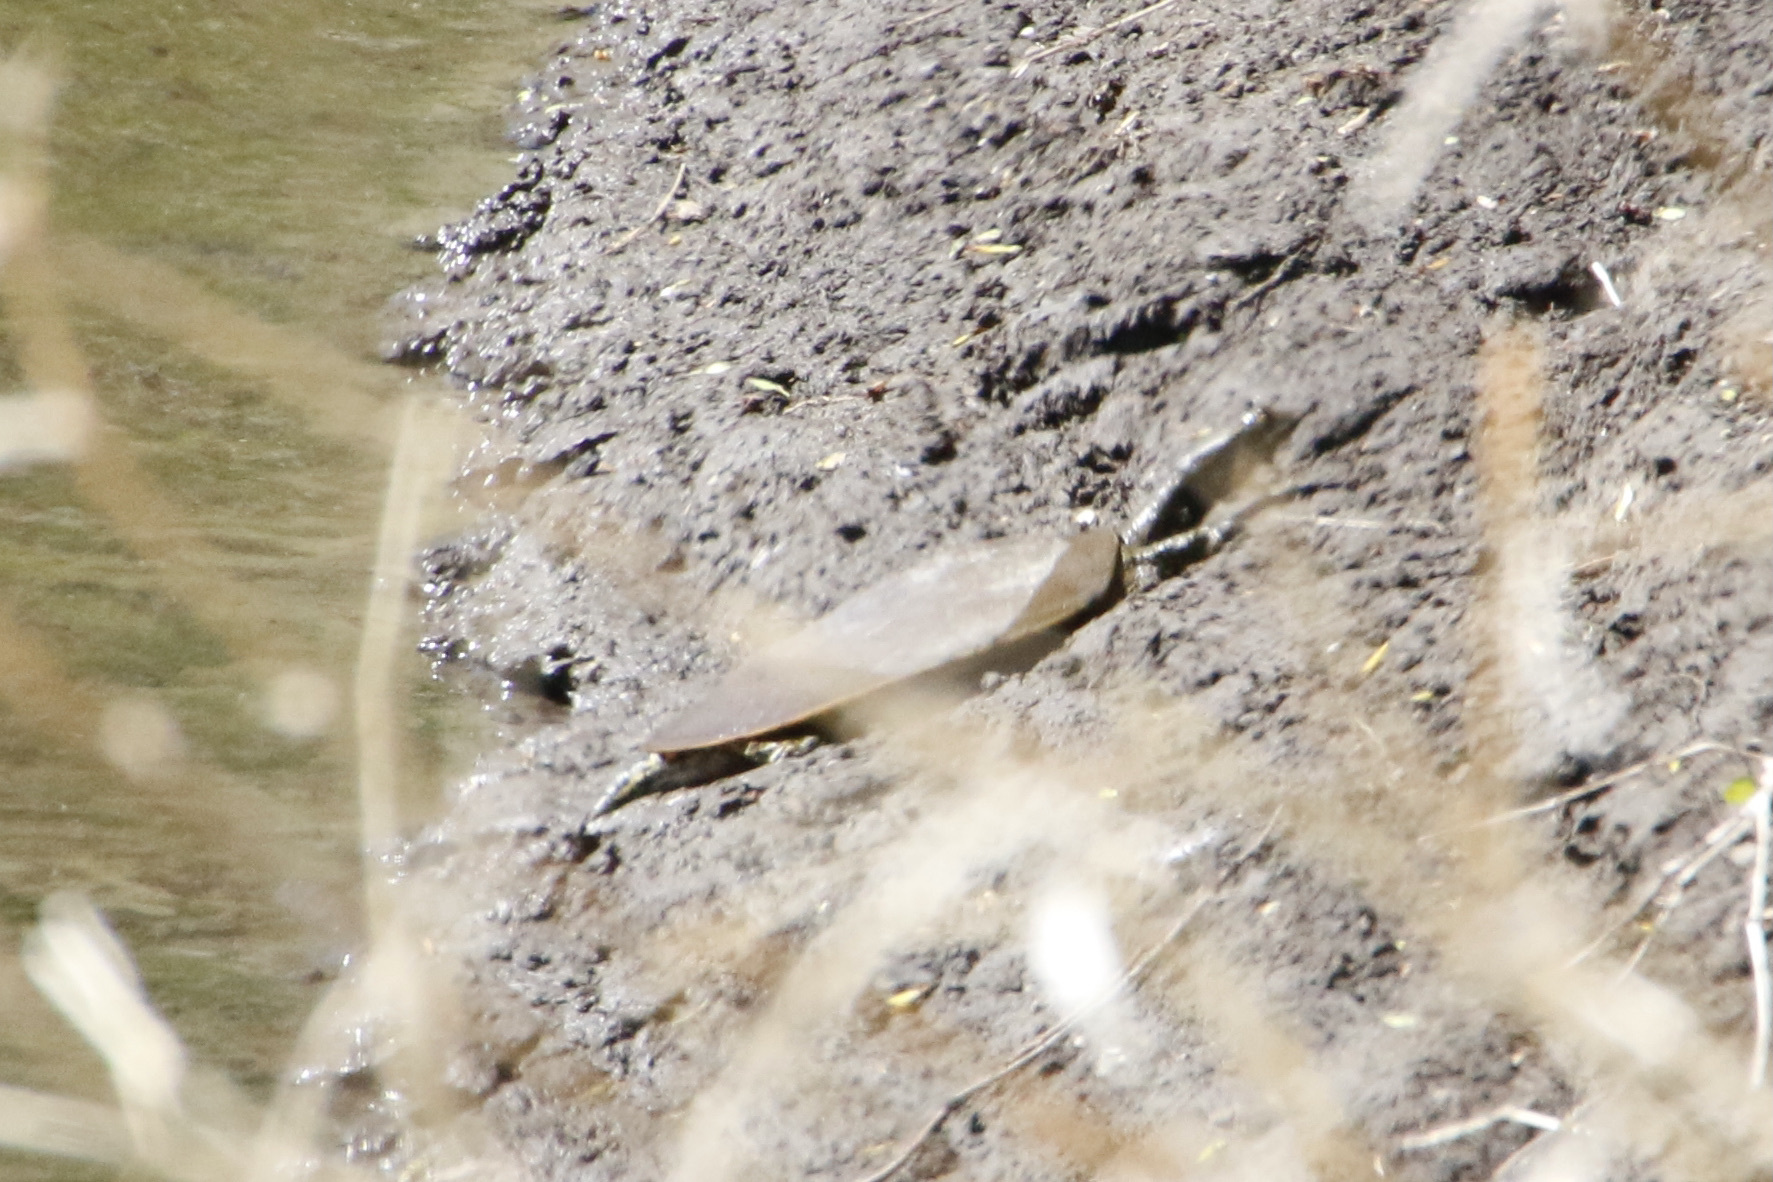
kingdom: Animalia
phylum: Chordata
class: Testudines
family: Trionychidae
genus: Apalone
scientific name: Apalone mutica
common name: Smooth softshell turtle
